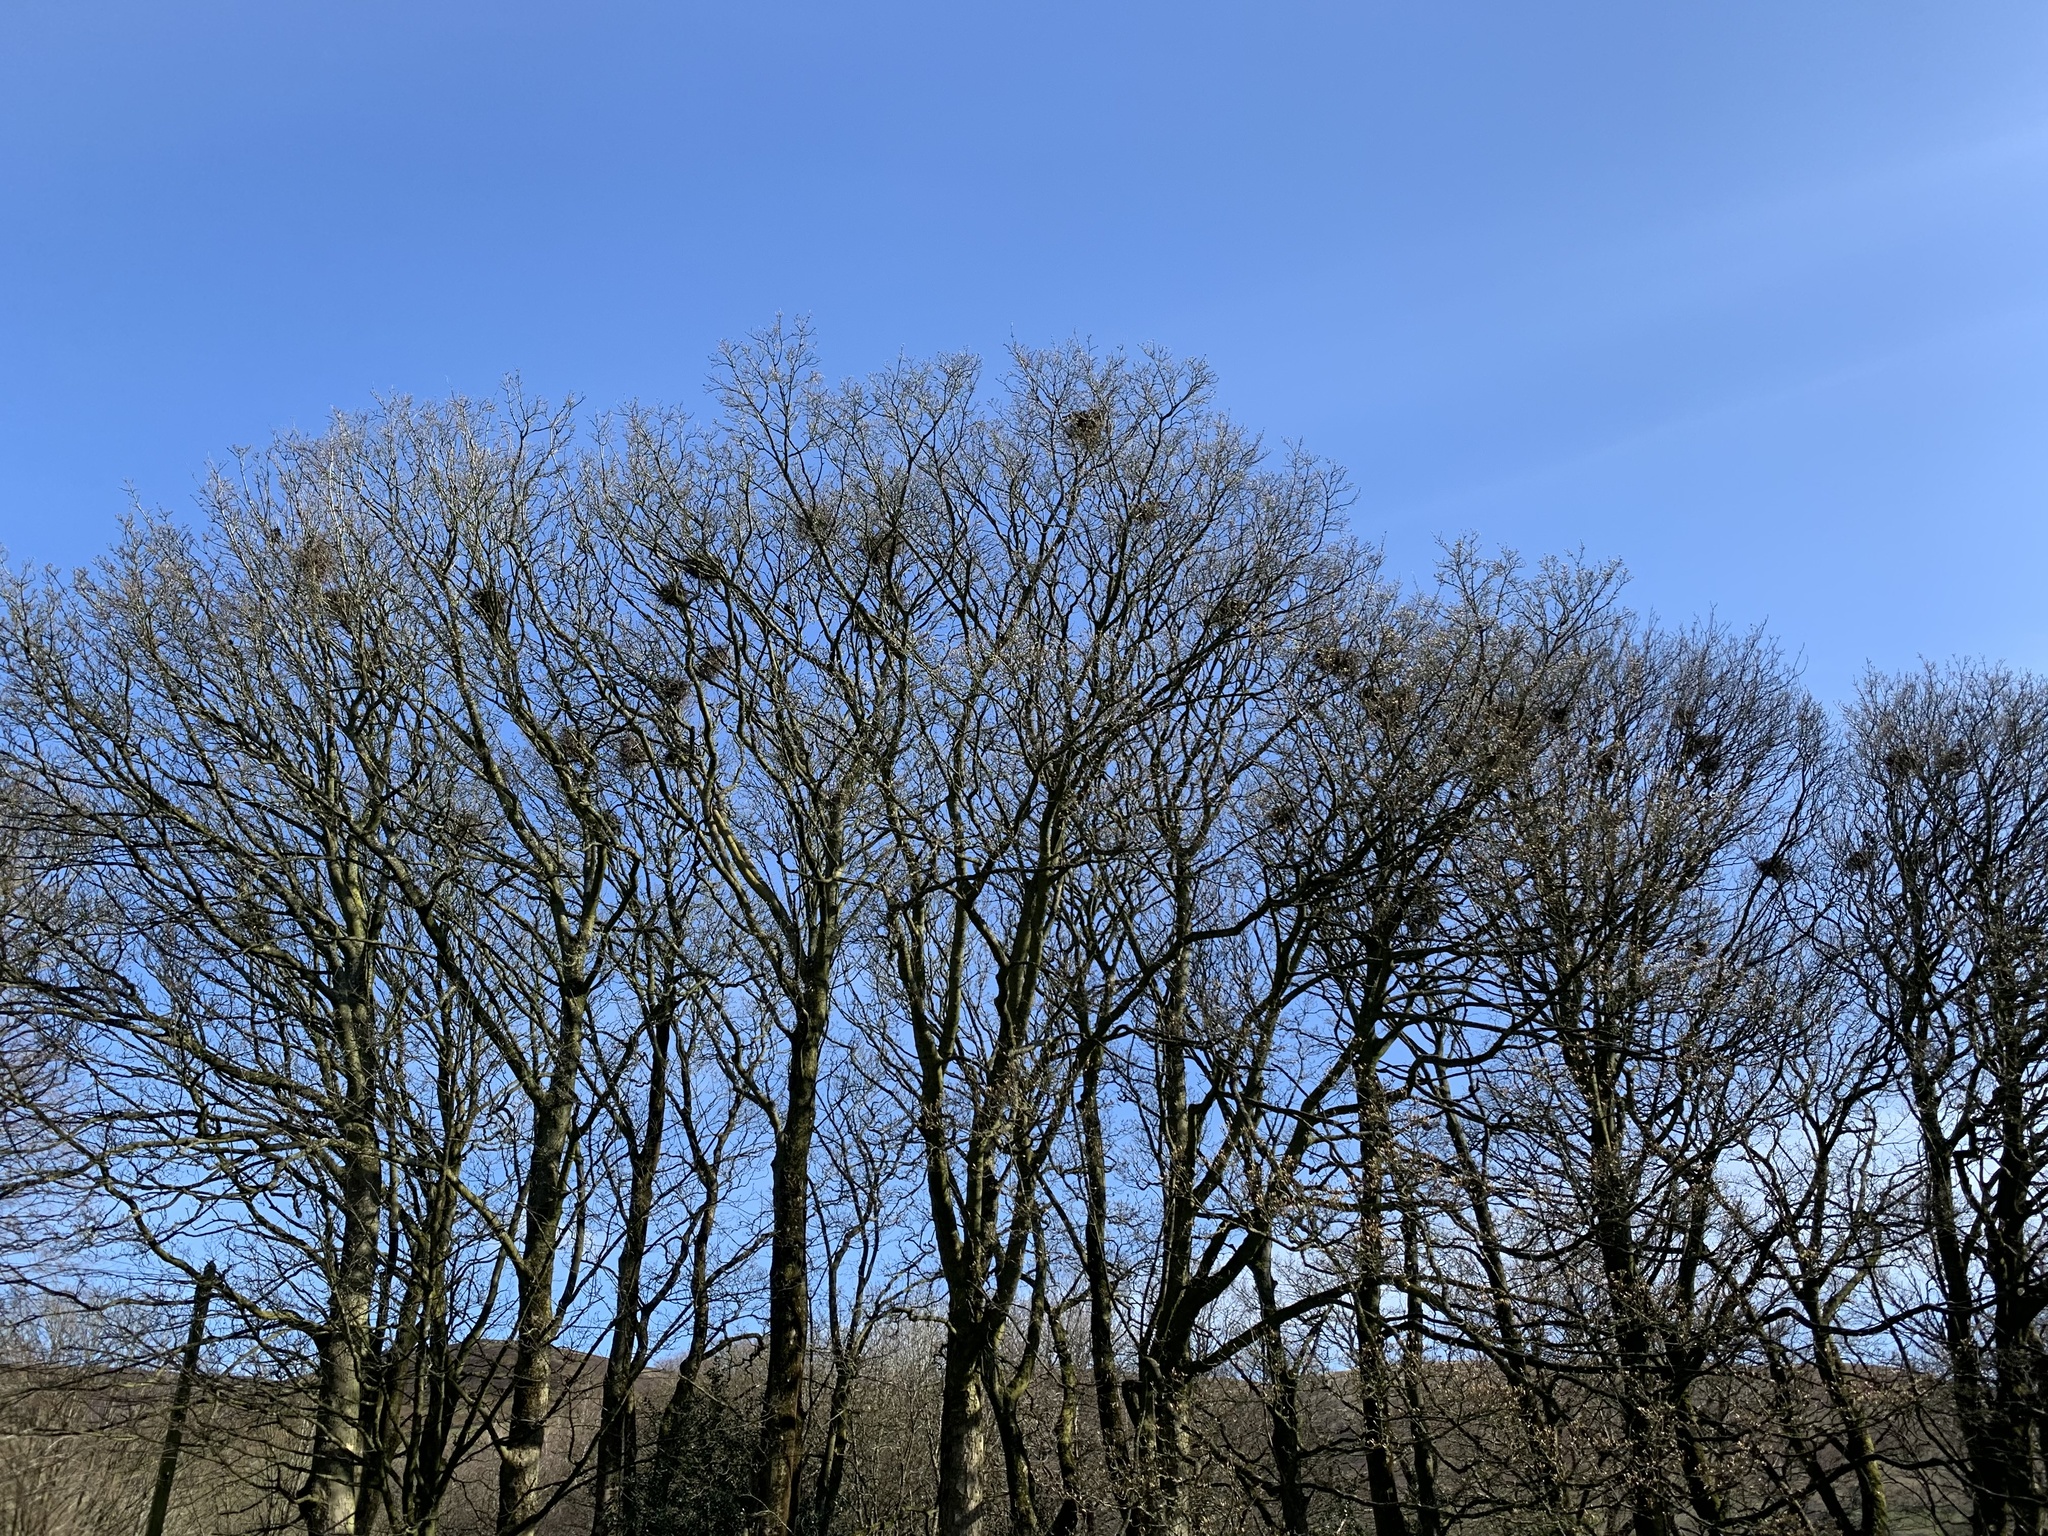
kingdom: Animalia
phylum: Chordata
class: Aves
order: Passeriformes
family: Corvidae
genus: Corvus
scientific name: Corvus frugilegus
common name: Rook
